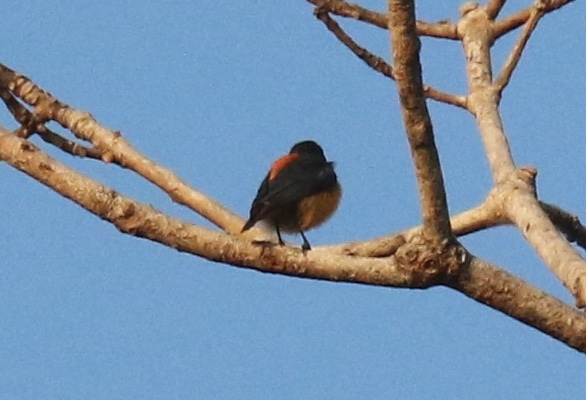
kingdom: Animalia
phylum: Chordata
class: Aves
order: Passeriformes
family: Dicaeidae
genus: Dicaeum
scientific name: Dicaeum trigonostigma
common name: Orange-bellied flowerpecker
